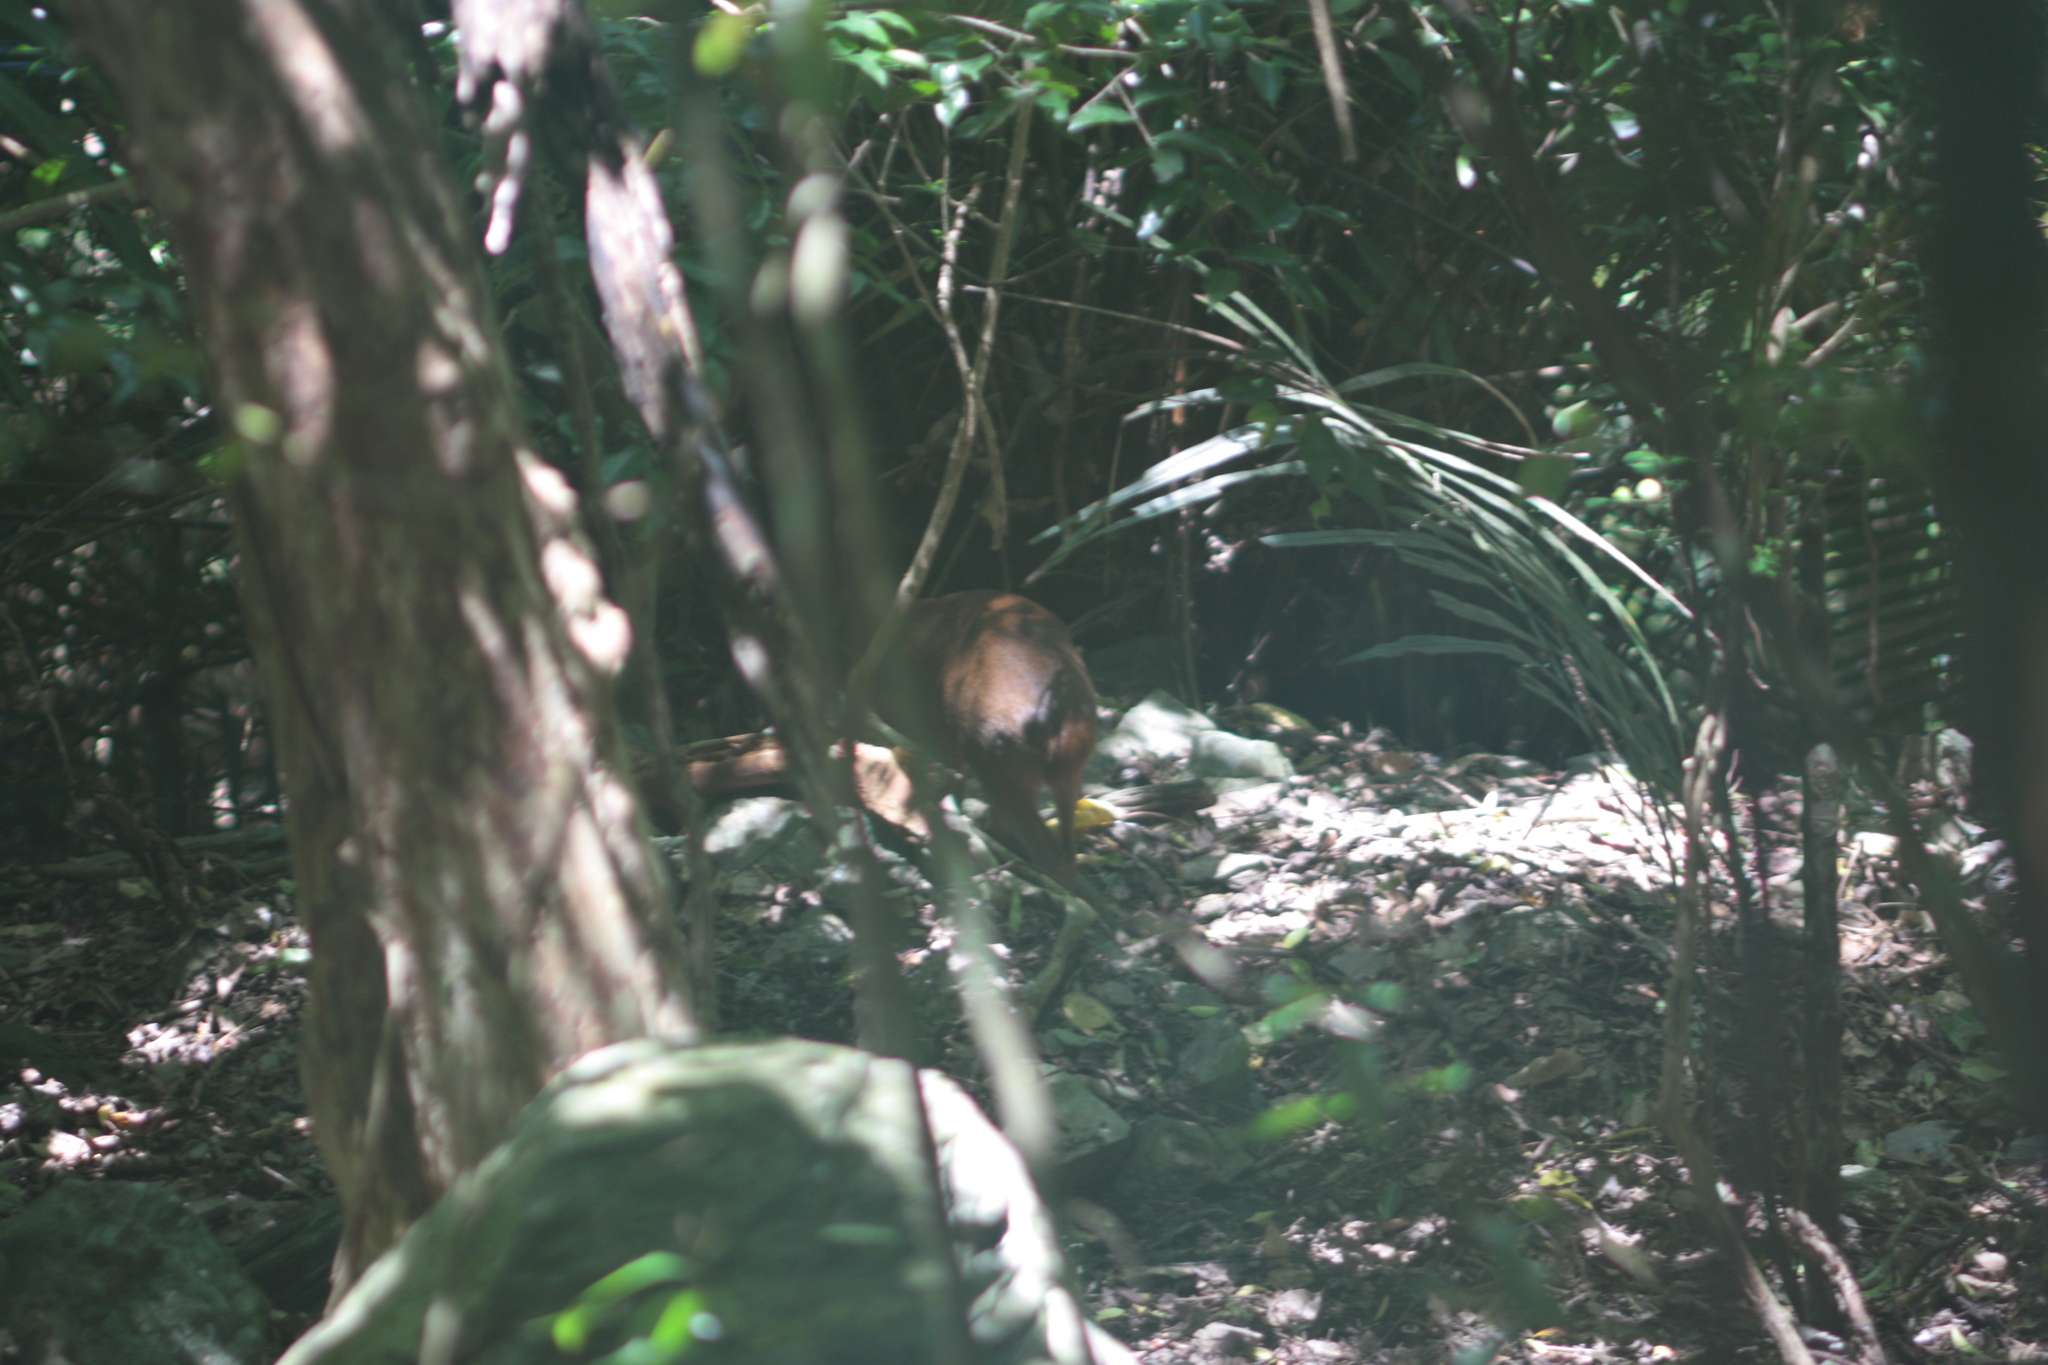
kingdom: Animalia
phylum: Chordata
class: Mammalia
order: Artiodactyla
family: Cervidae
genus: Muntiacus
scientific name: Muntiacus reevesi
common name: Reeves' muntjac
